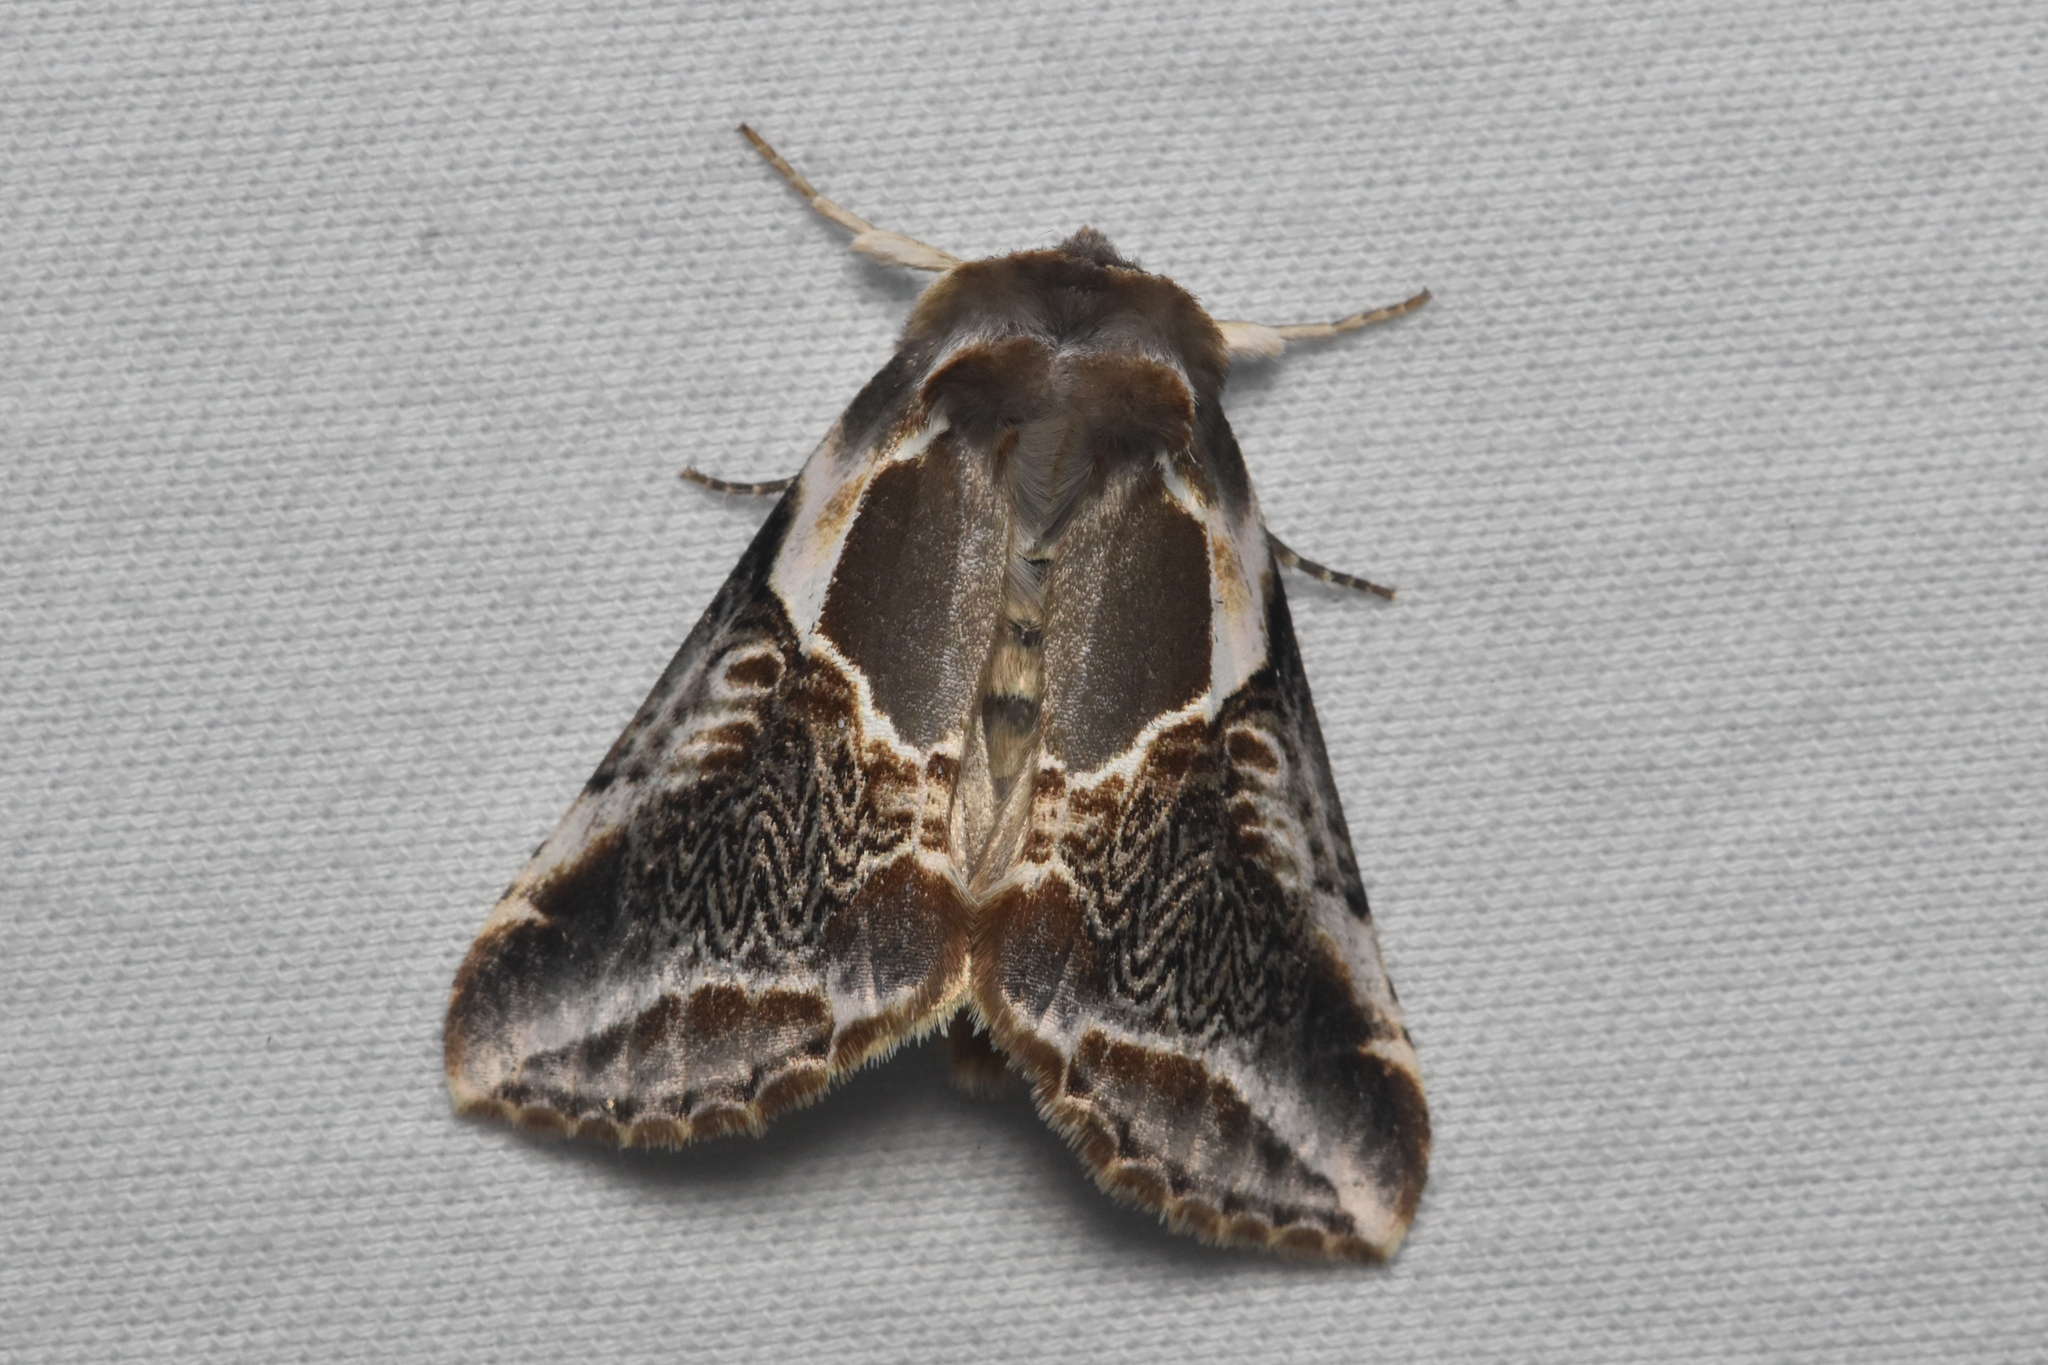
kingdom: Animalia
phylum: Arthropoda
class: Insecta
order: Lepidoptera
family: Drepanidae
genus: Habrosyne
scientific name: Habrosyne scripta
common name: Lettered habrosyne moth
